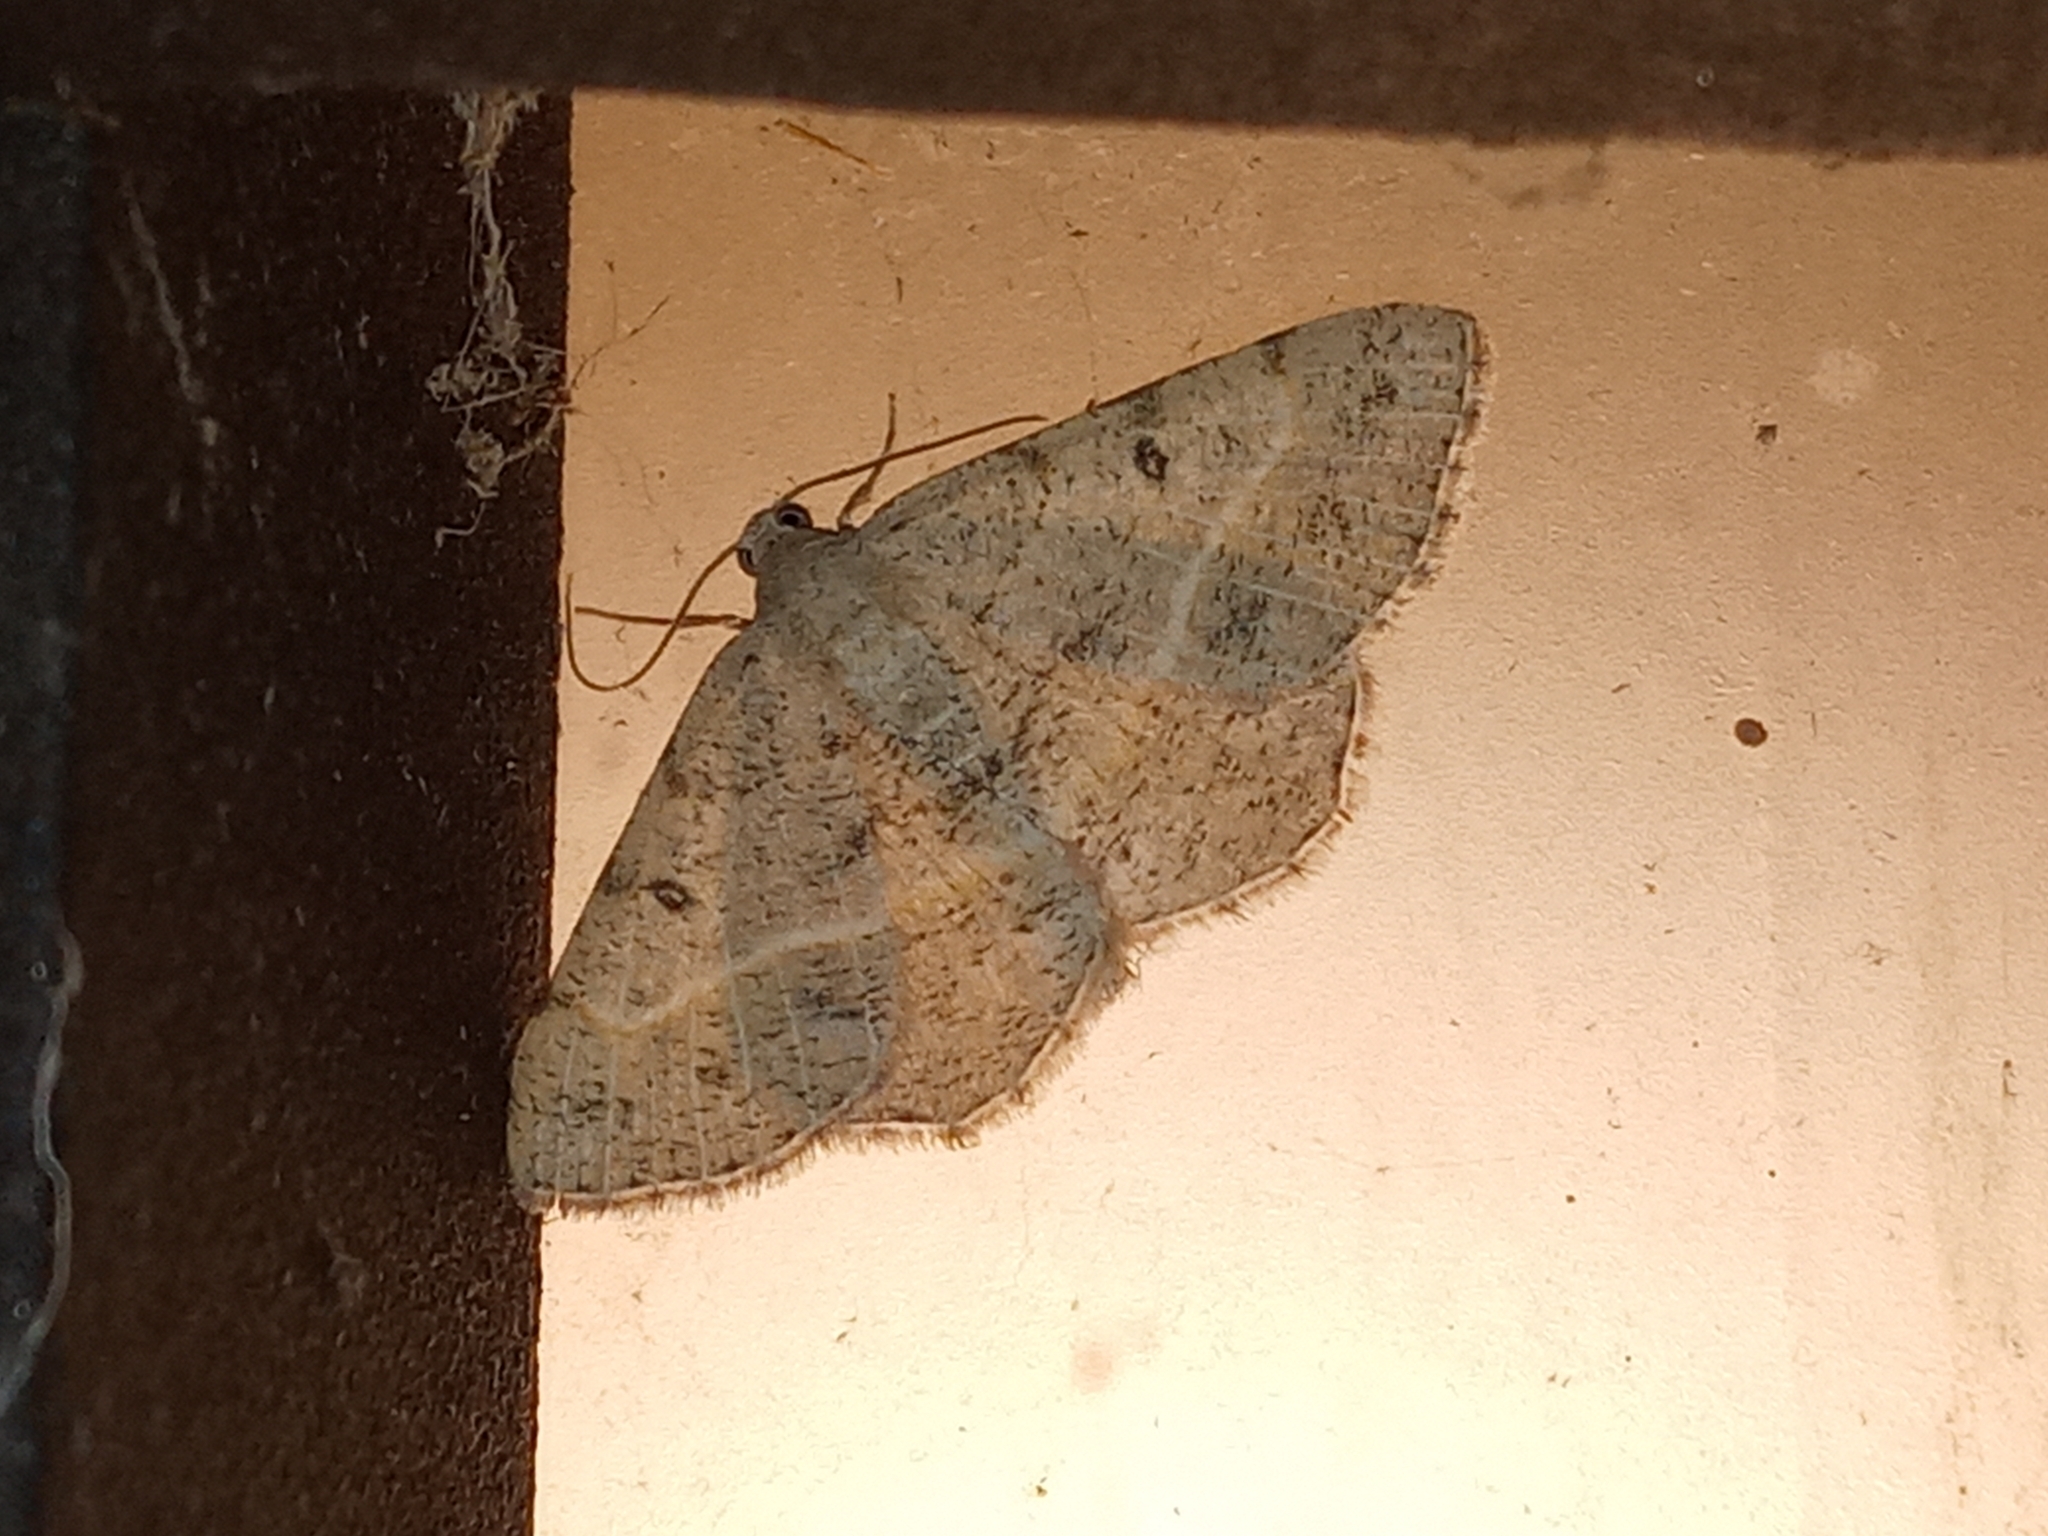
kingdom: Animalia
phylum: Arthropoda
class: Insecta
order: Lepidoptera
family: Geometridae
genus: Digrammia
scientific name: Digrammia irrorata
